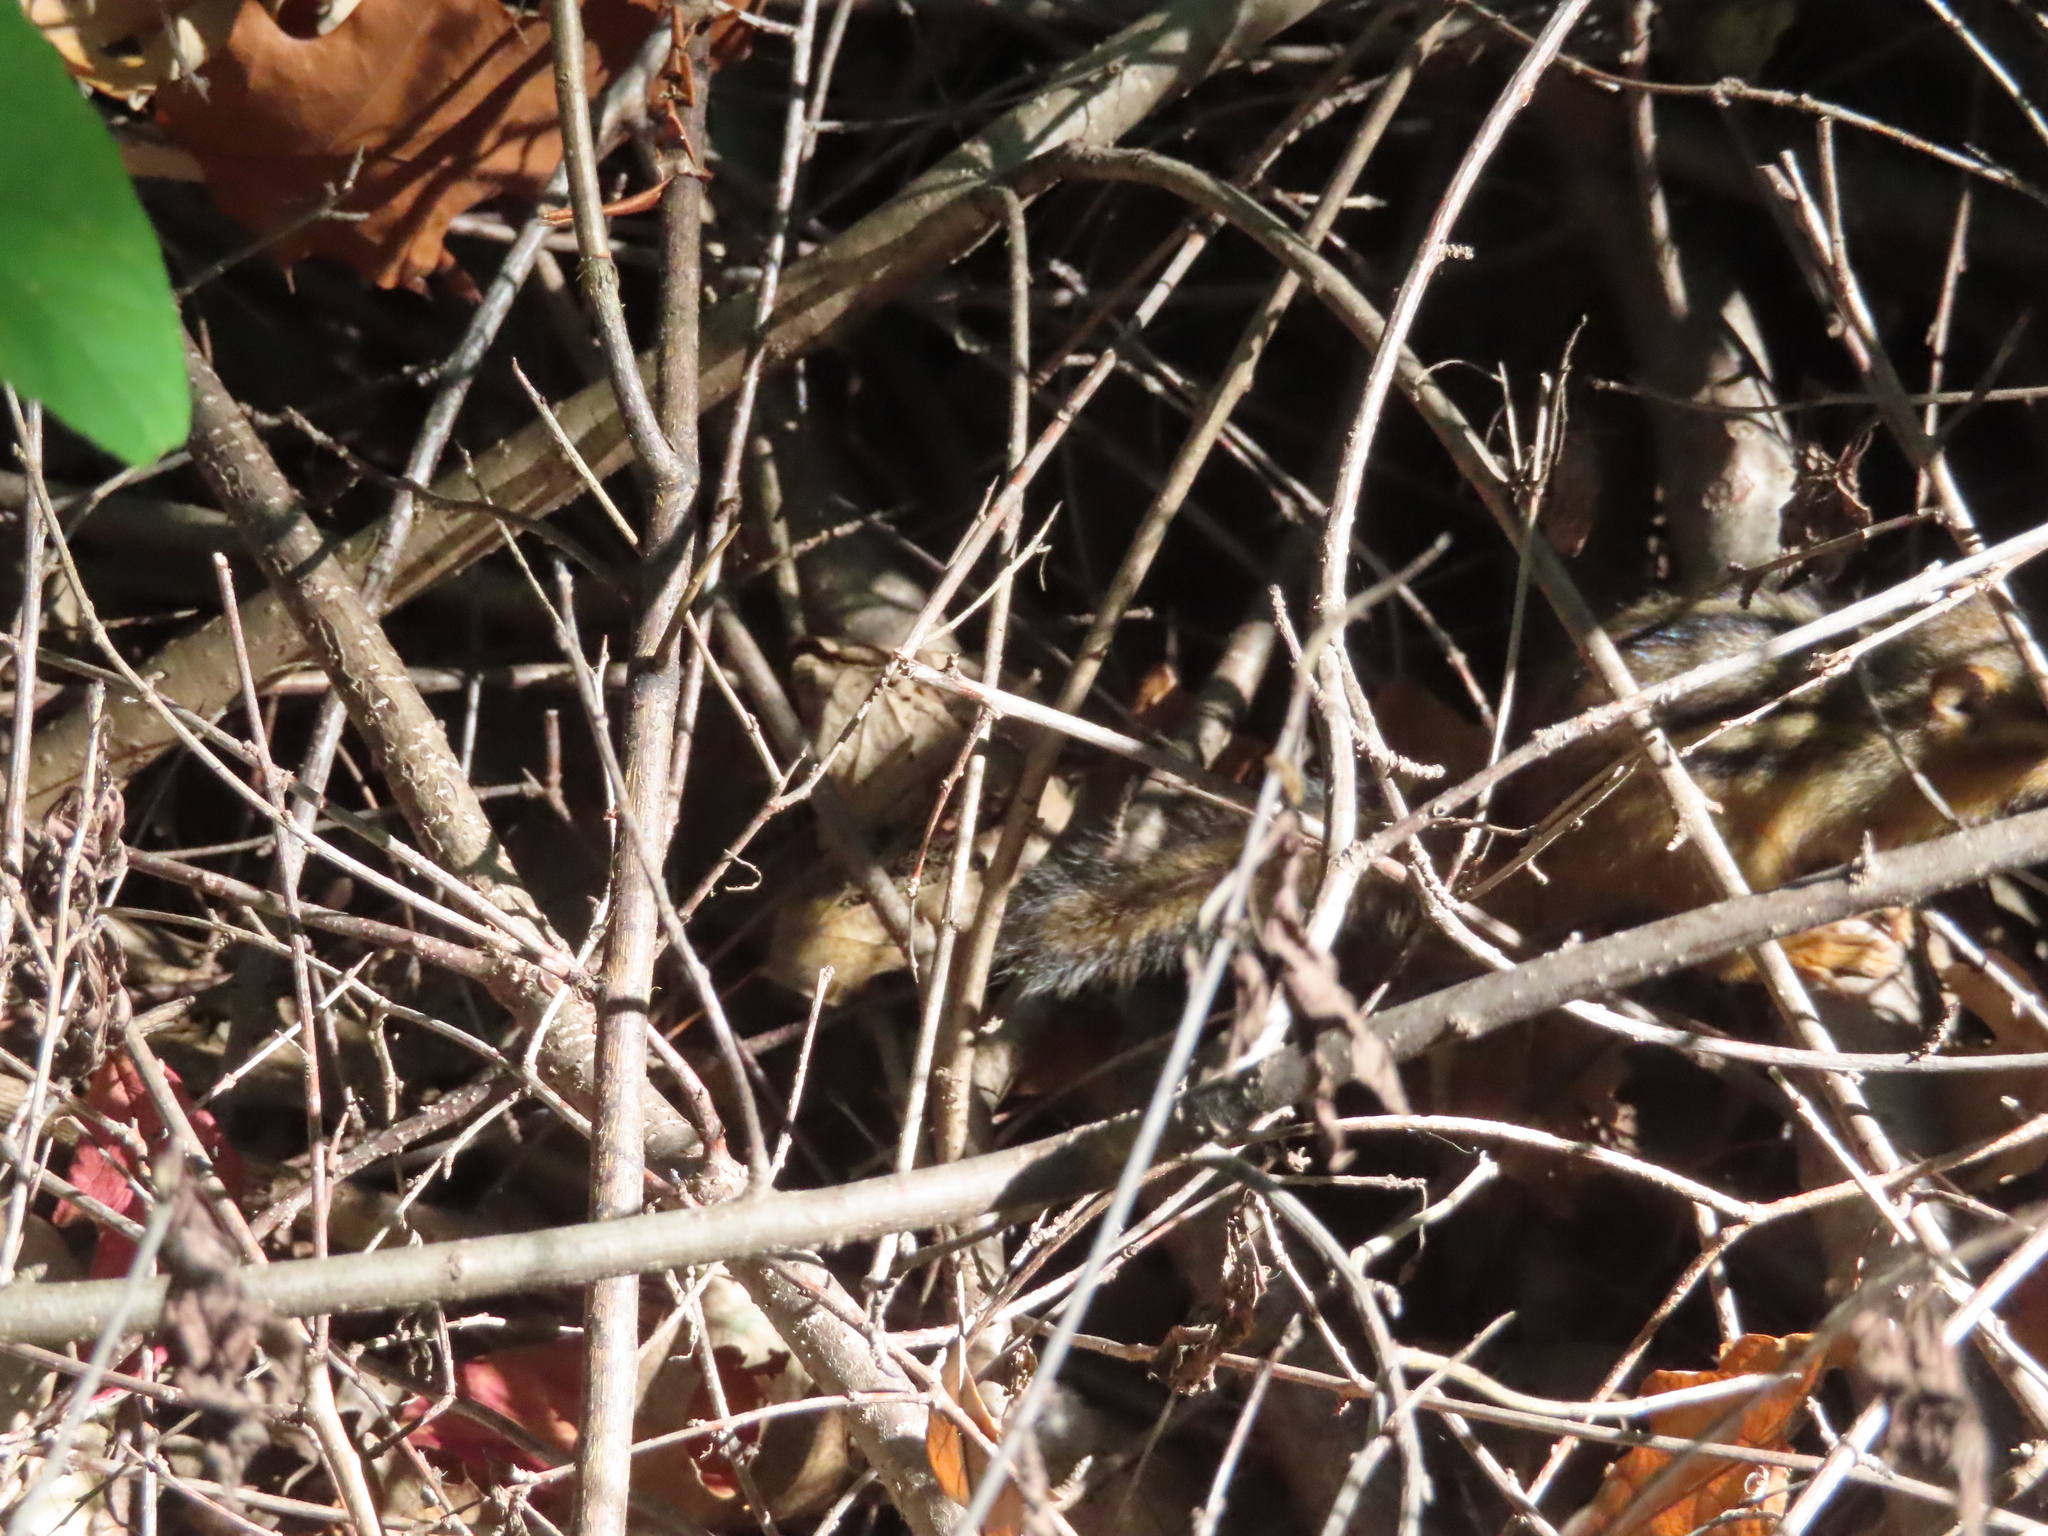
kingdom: Animalia
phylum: Chordata
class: Mammalia
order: Rodentia
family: Sciuridae
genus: Tamias
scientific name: Tamias striatus
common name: Eastern chipmunk
